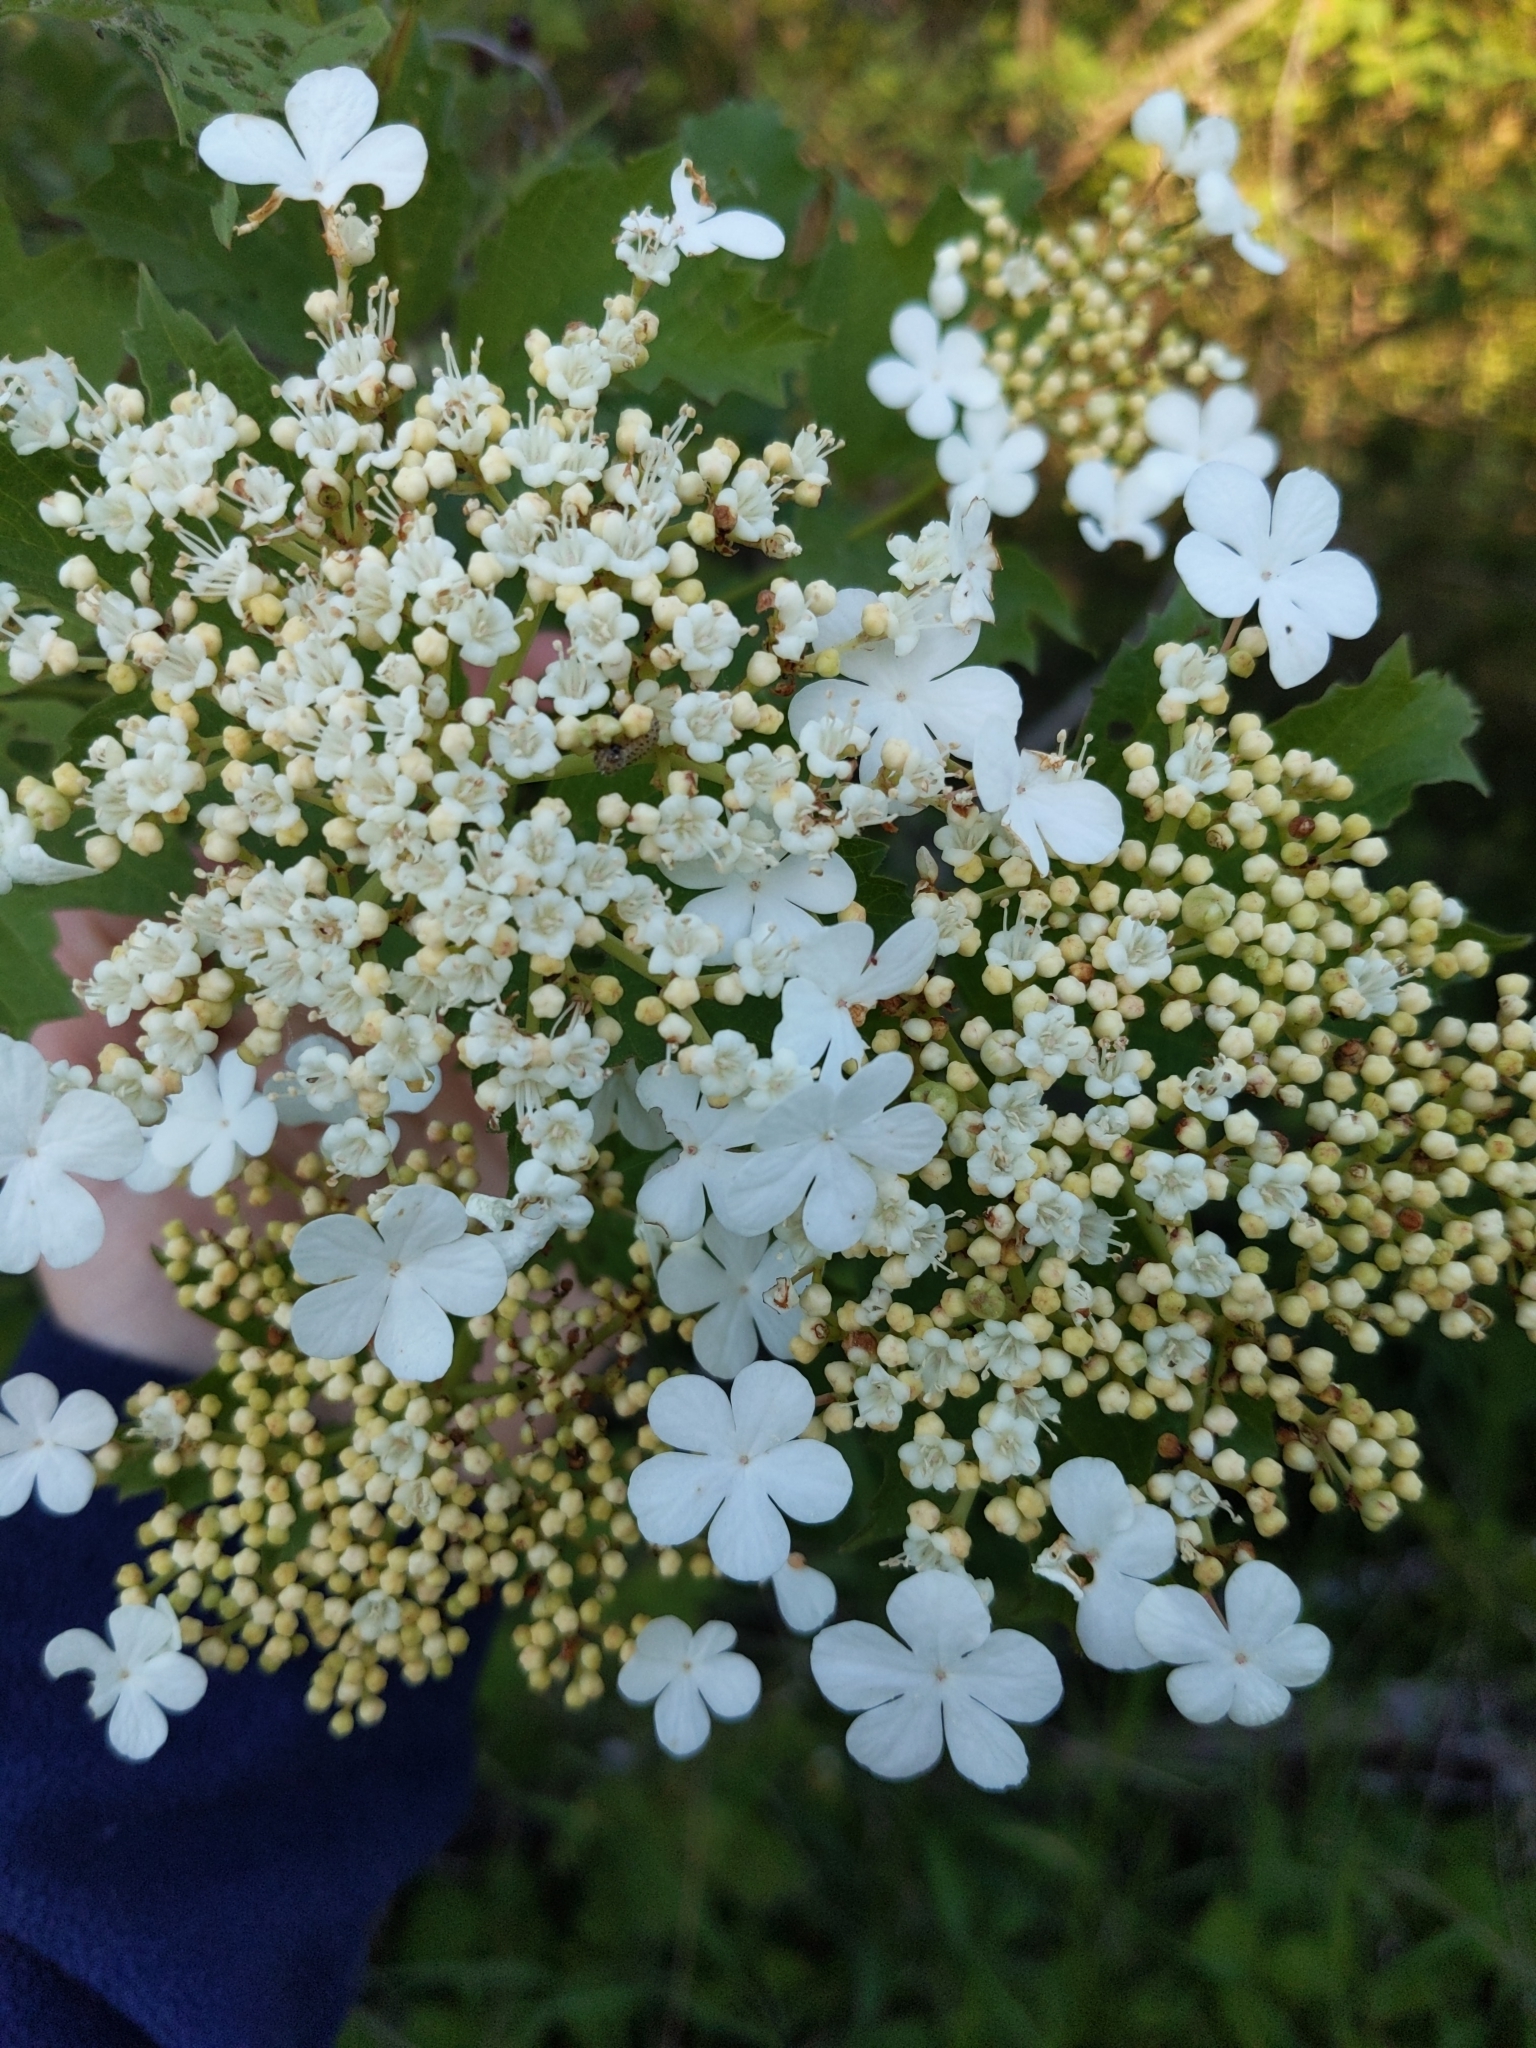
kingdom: Plantae
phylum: Tracheophyta
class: Magnoliopsida
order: Dipsacales
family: Viburnaceae
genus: Viburnum
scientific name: Viburnum opulus
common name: Guelder-rose
